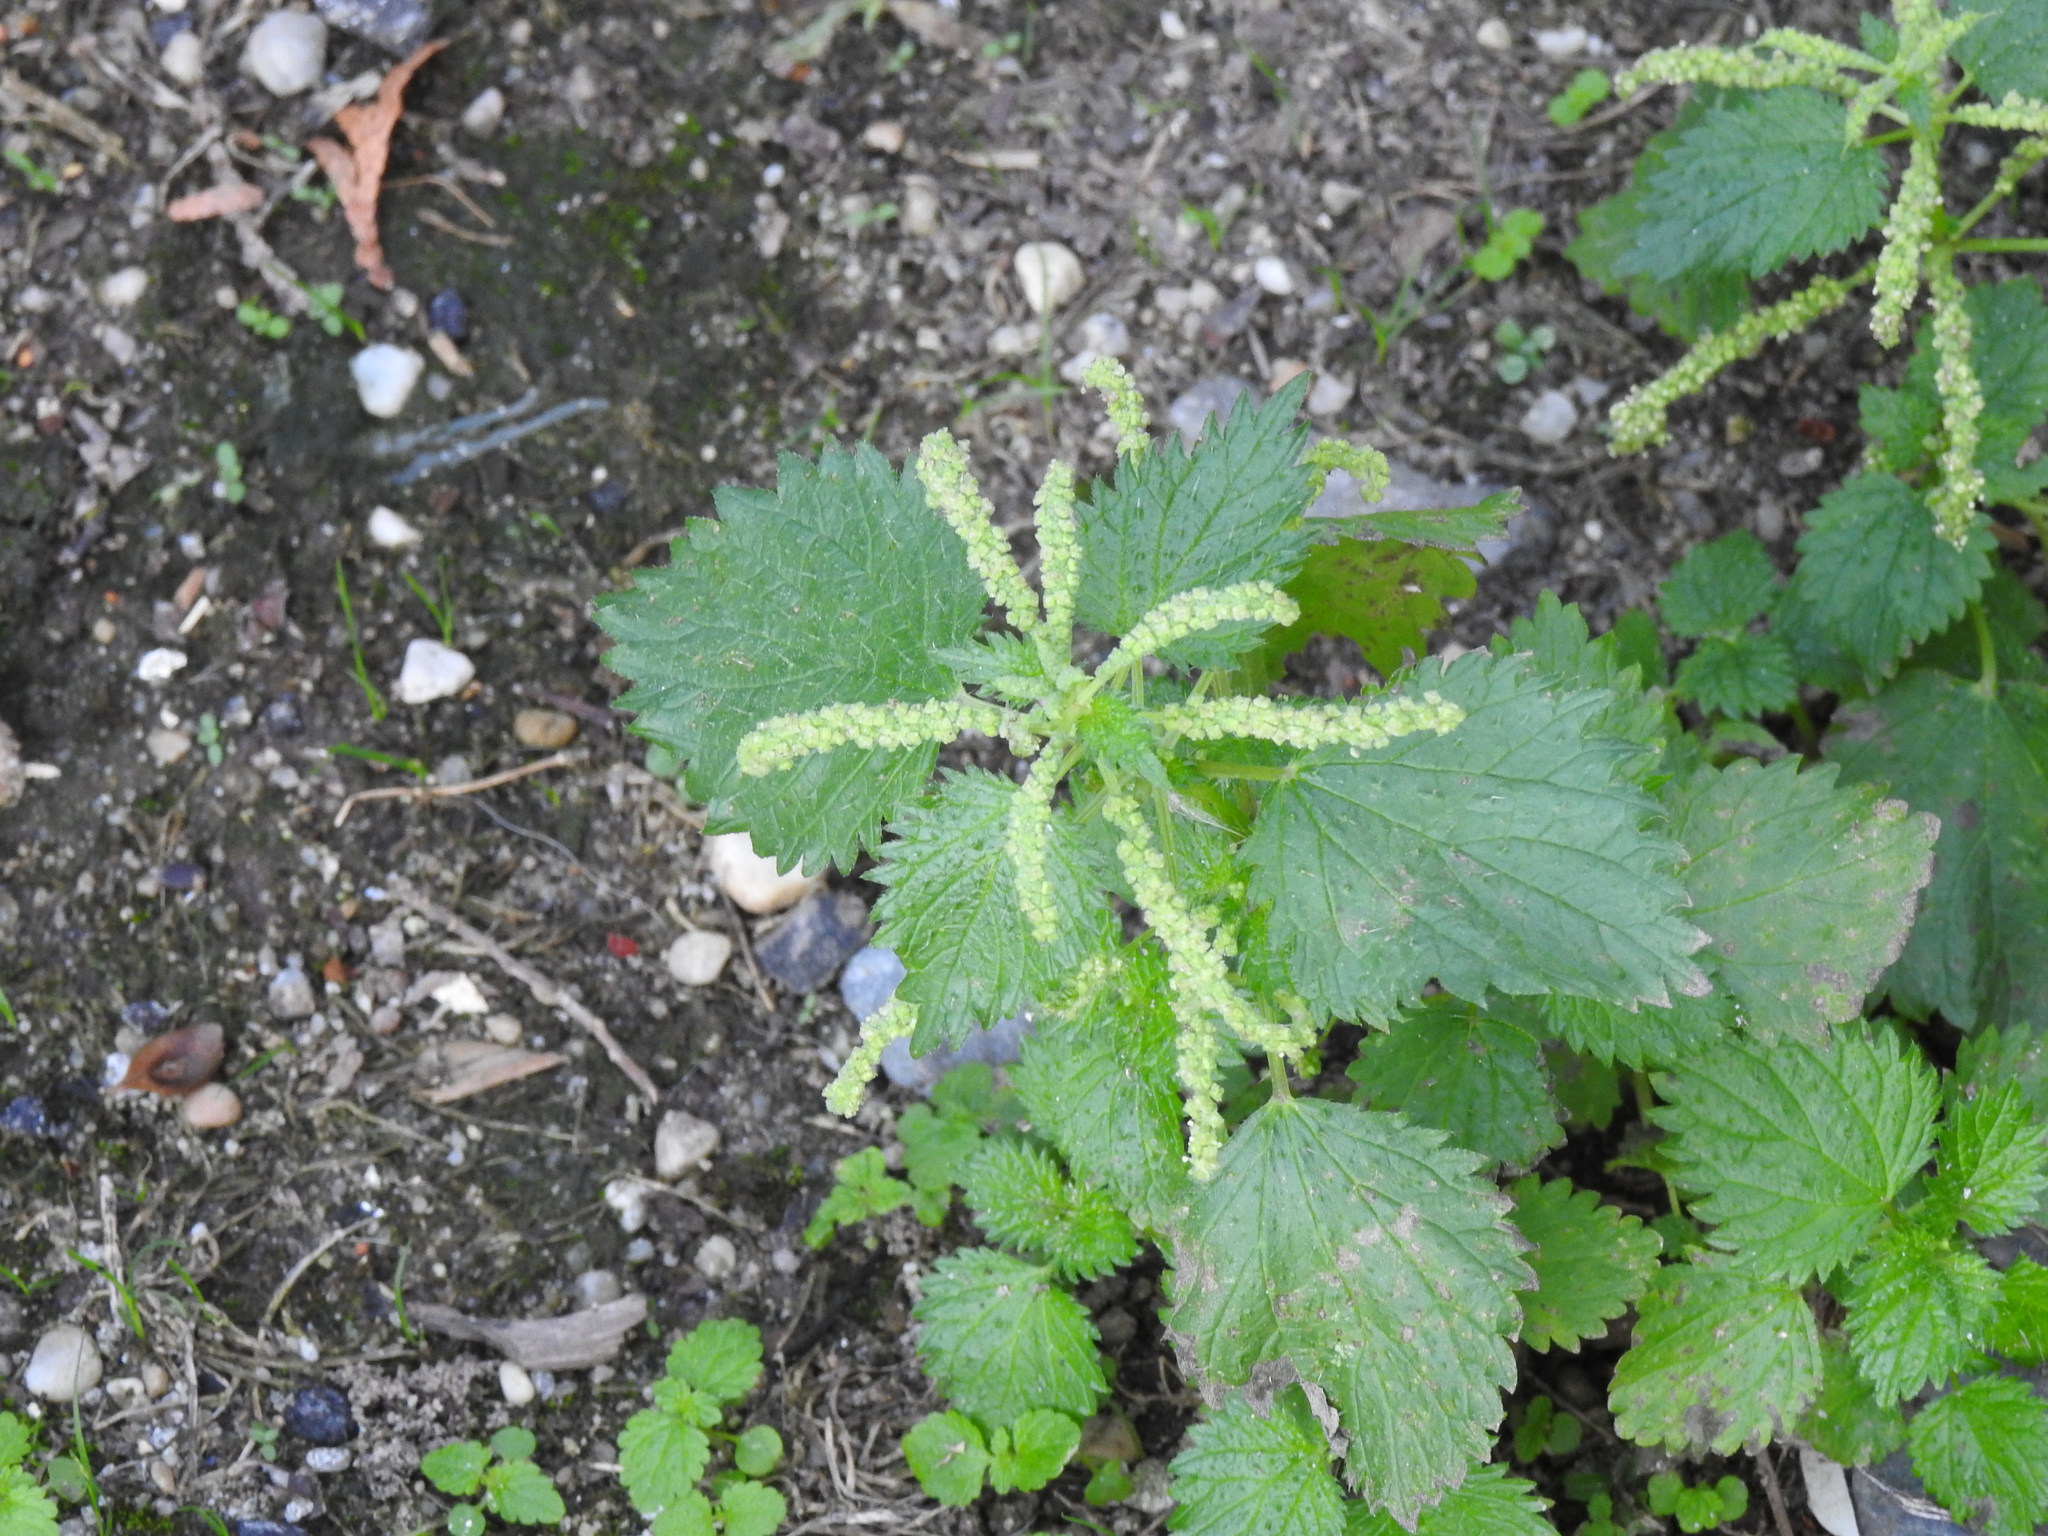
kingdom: Plantae
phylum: Tracheophyta
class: Magnoliopsida
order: Rosales
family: Urticaceae
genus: Urtica
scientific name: Urtica membranacea
